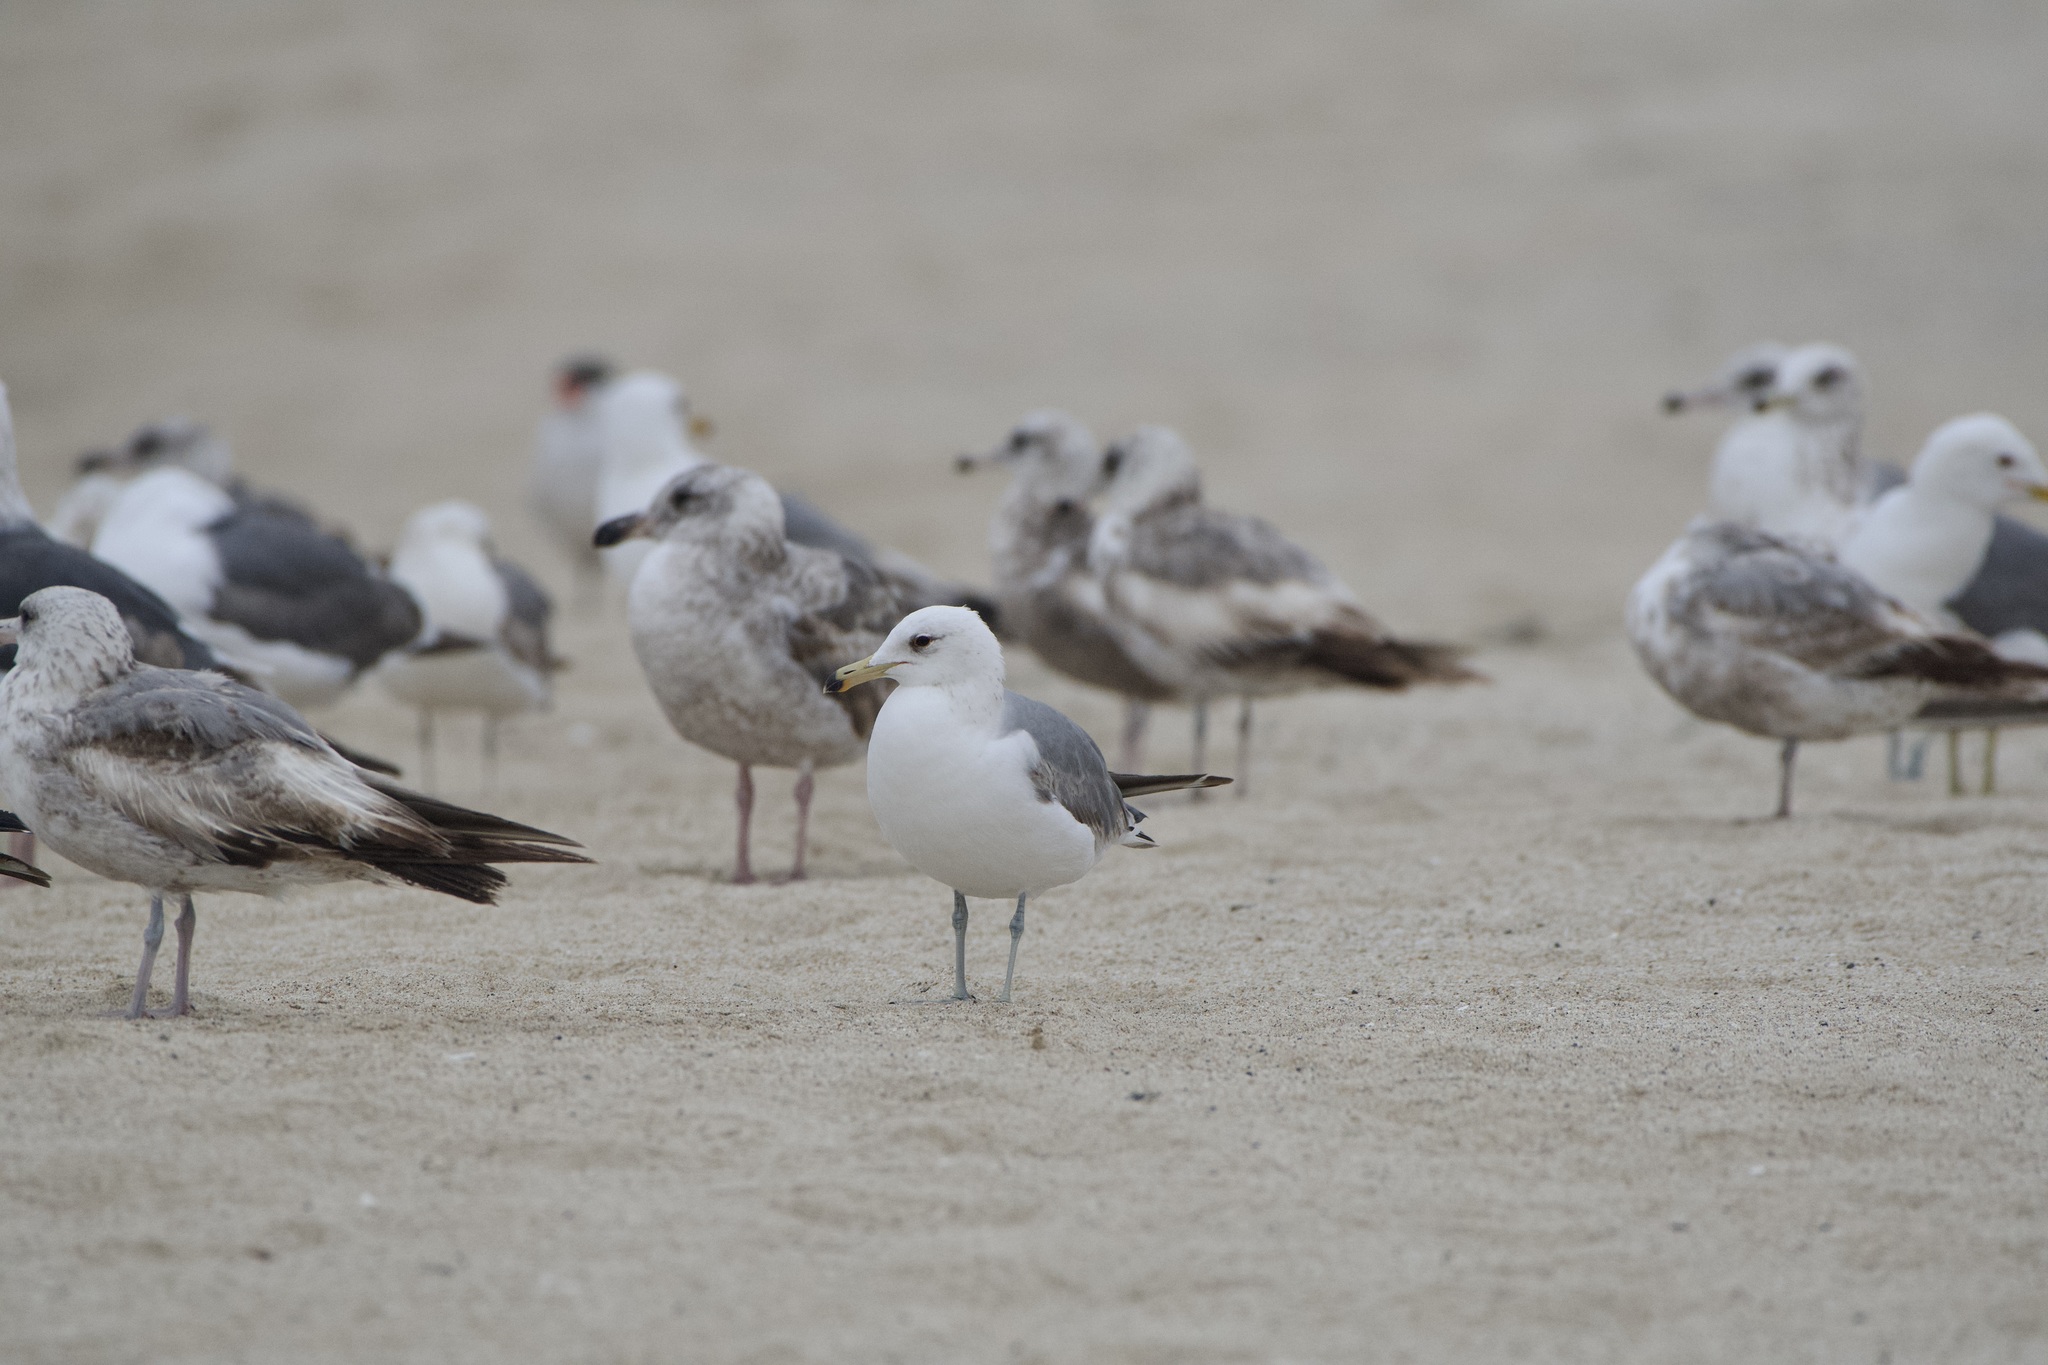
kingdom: Animalia
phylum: Chordata
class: Aves
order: Charadriiformes
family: Laridae
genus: Larus
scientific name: Larus californicus
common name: California gull
